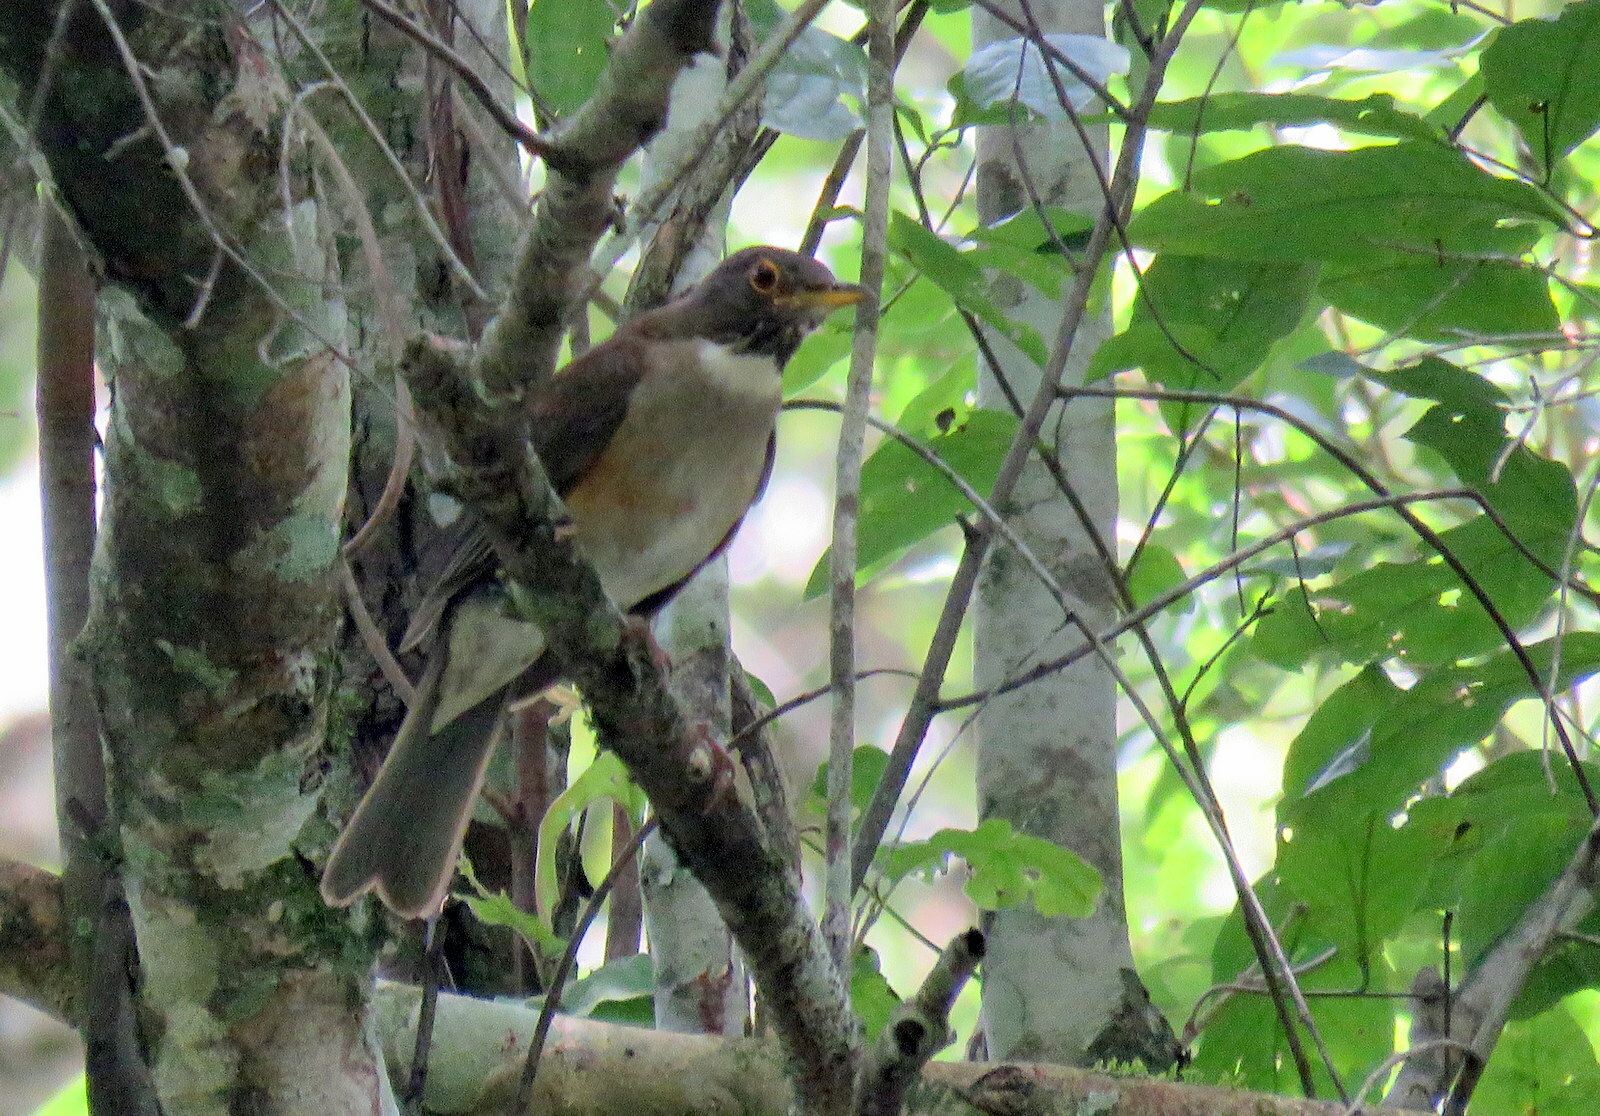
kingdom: Animalia
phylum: Chordata
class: Aves
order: Passeriformes
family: Turdidae
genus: Turdus
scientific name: Turdus albicollis
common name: White-necked thrush
